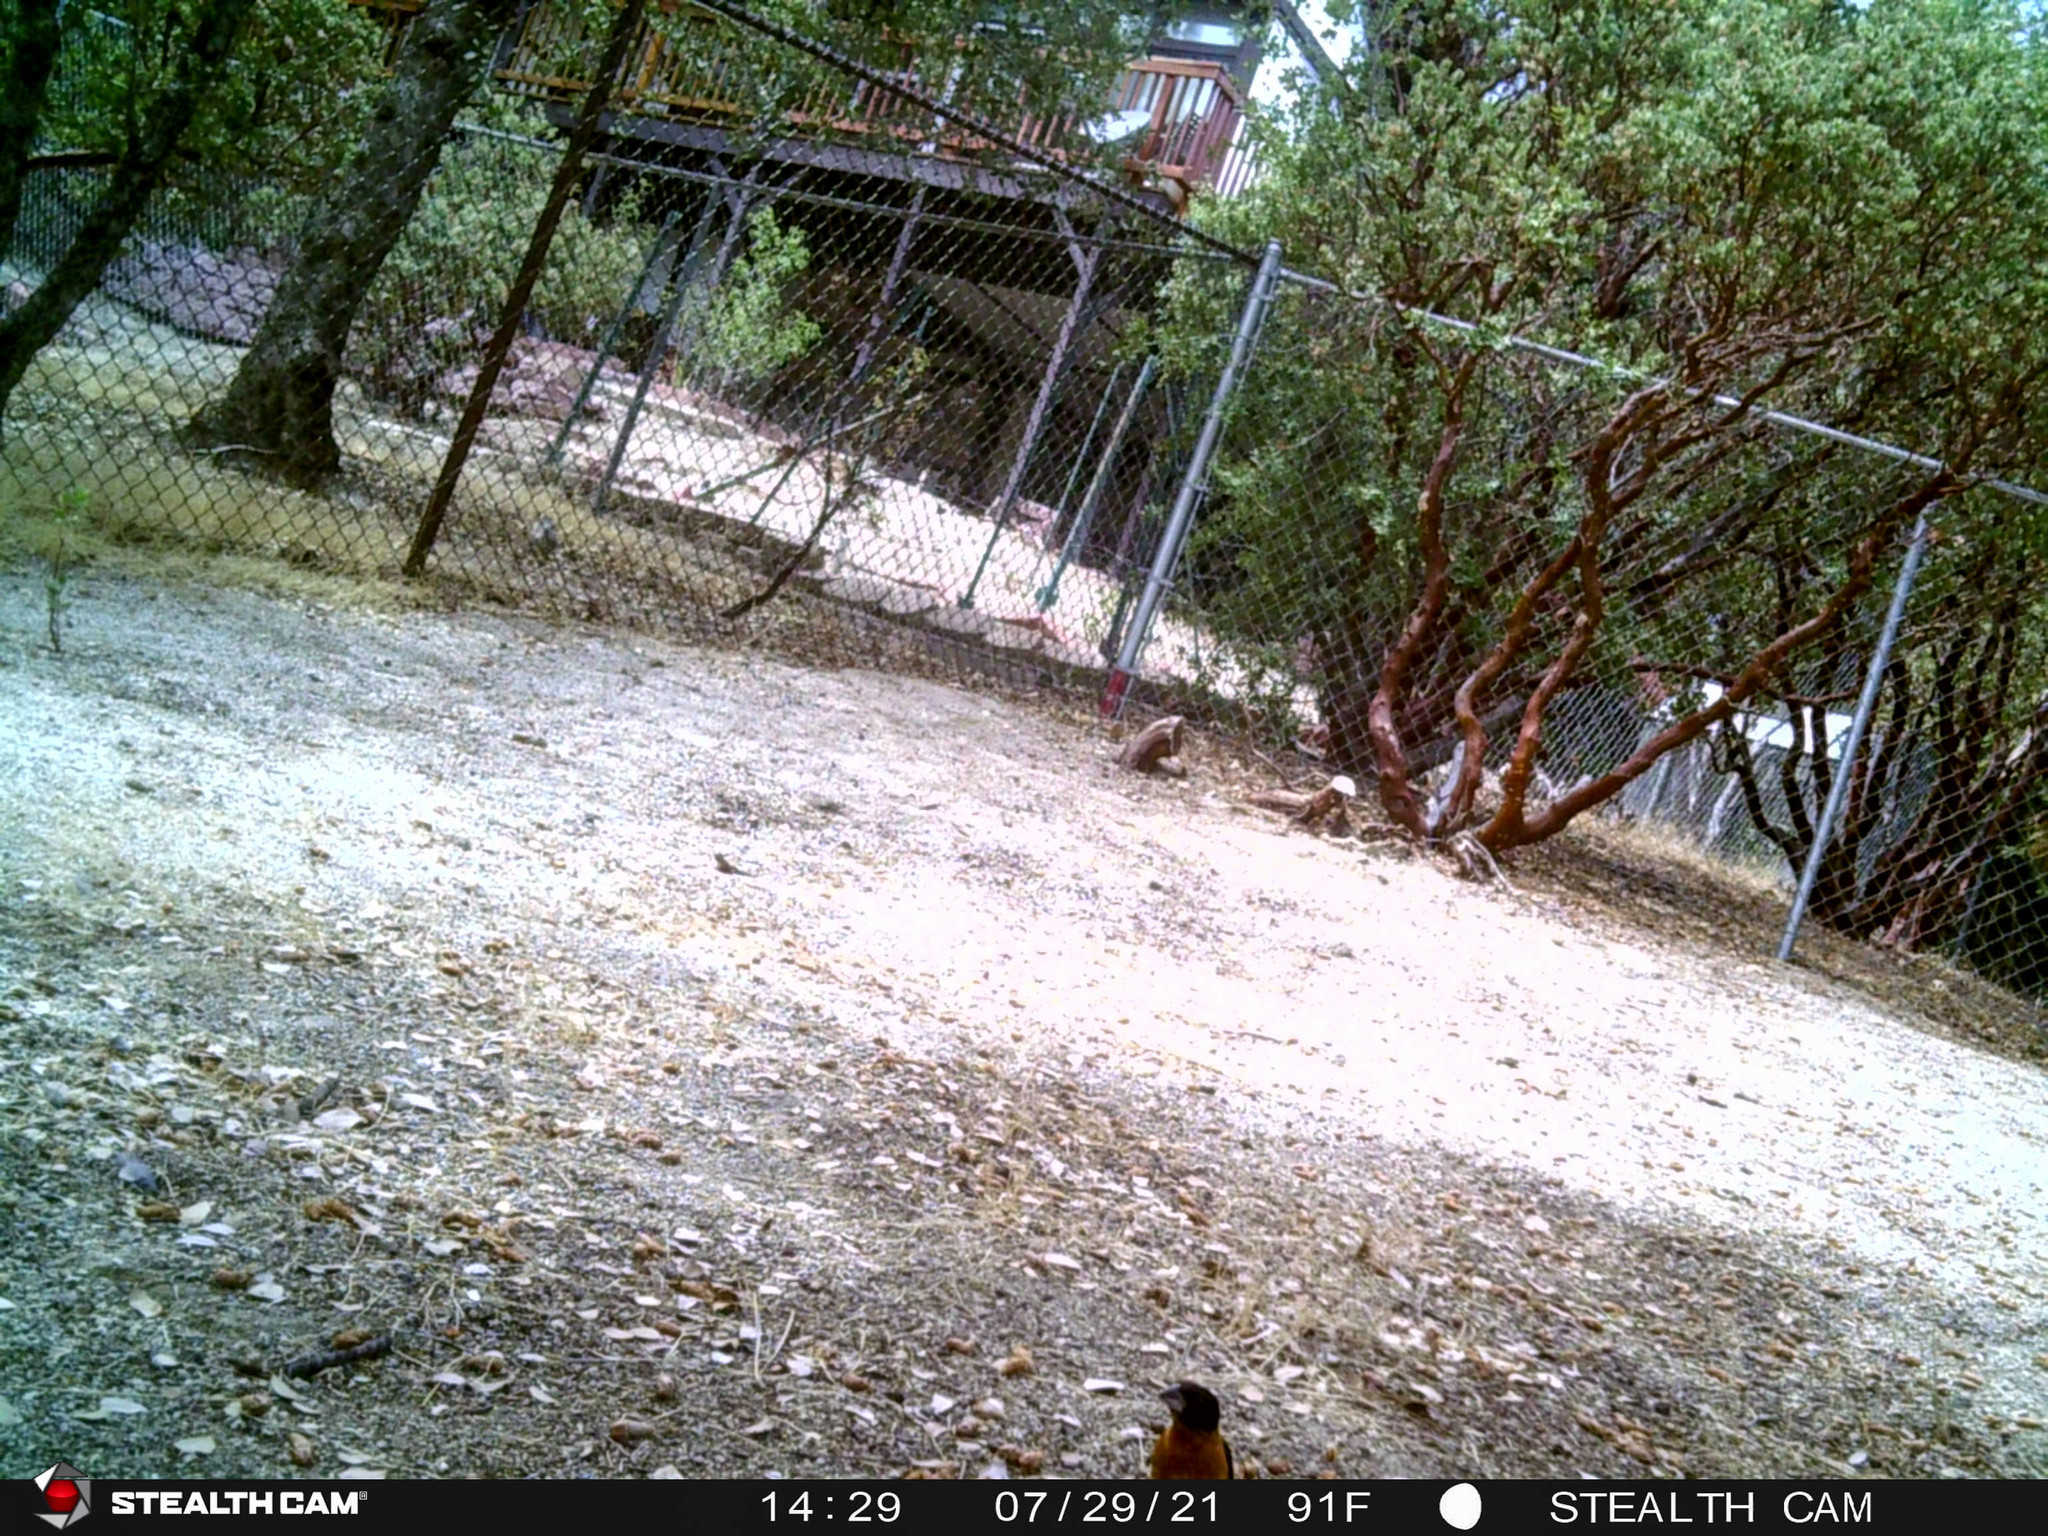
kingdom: Animalia
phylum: Chordata
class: Aves
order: Passeriformes
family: Cardinalidae
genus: Pheucticus
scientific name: Pheucticus melanocephalus
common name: Black-headed grosbeak
